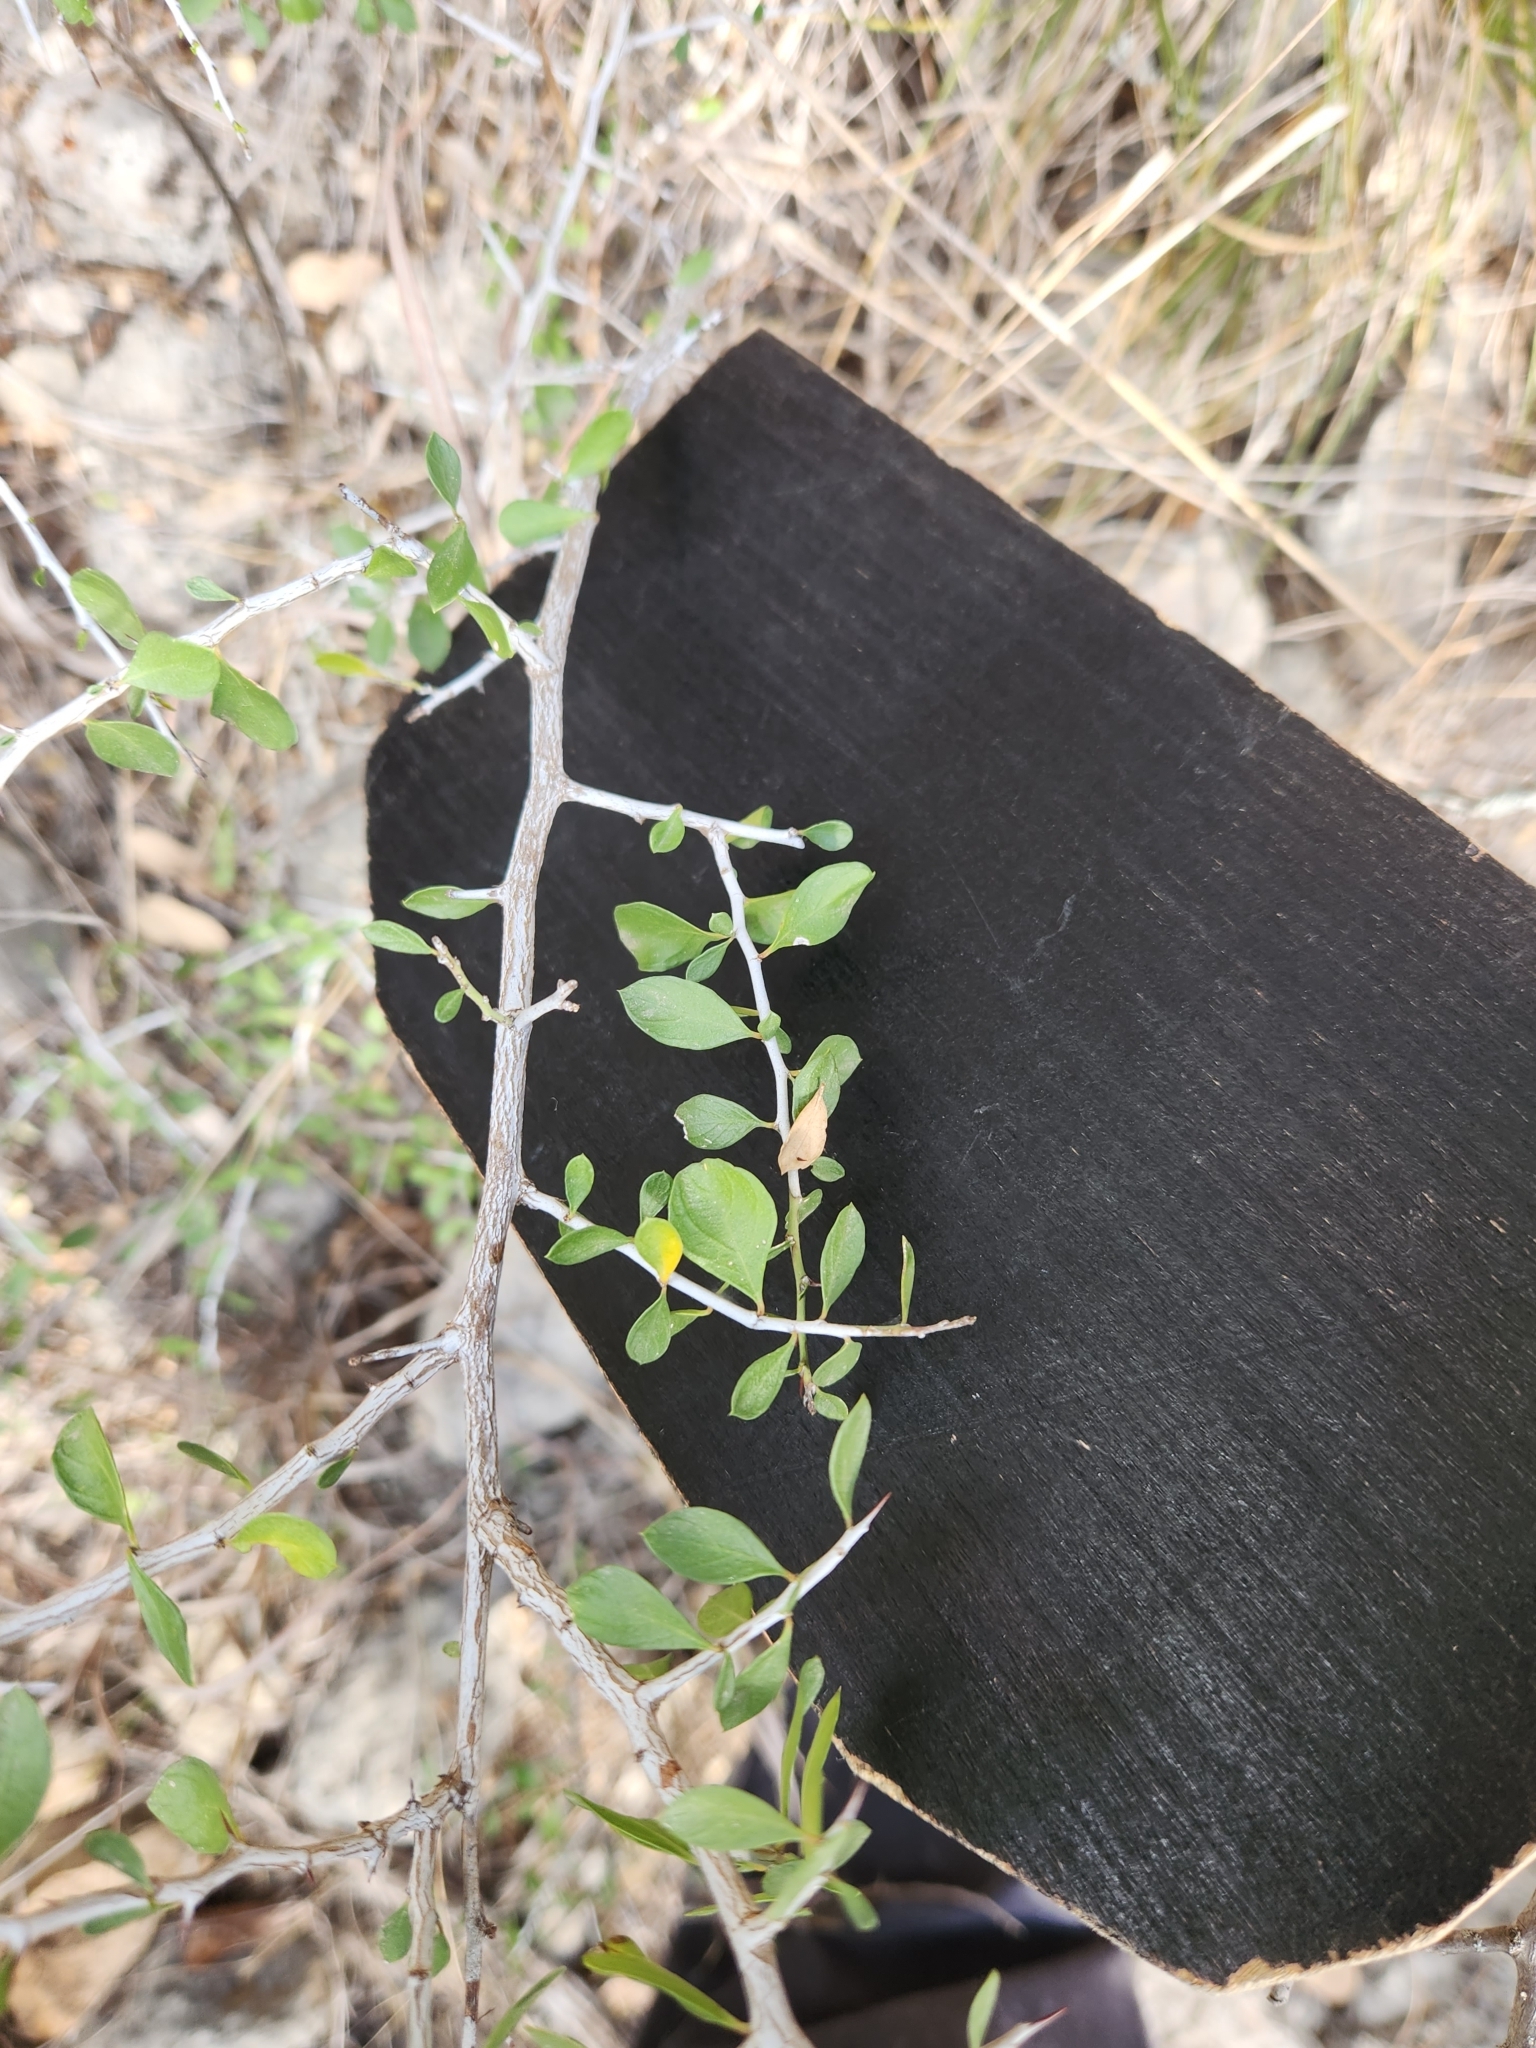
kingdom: Plantae
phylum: Tracheophyta
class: Magnoliopsida
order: Rosales
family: Rhamnaceae
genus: Condalia
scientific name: Condalia viridis
